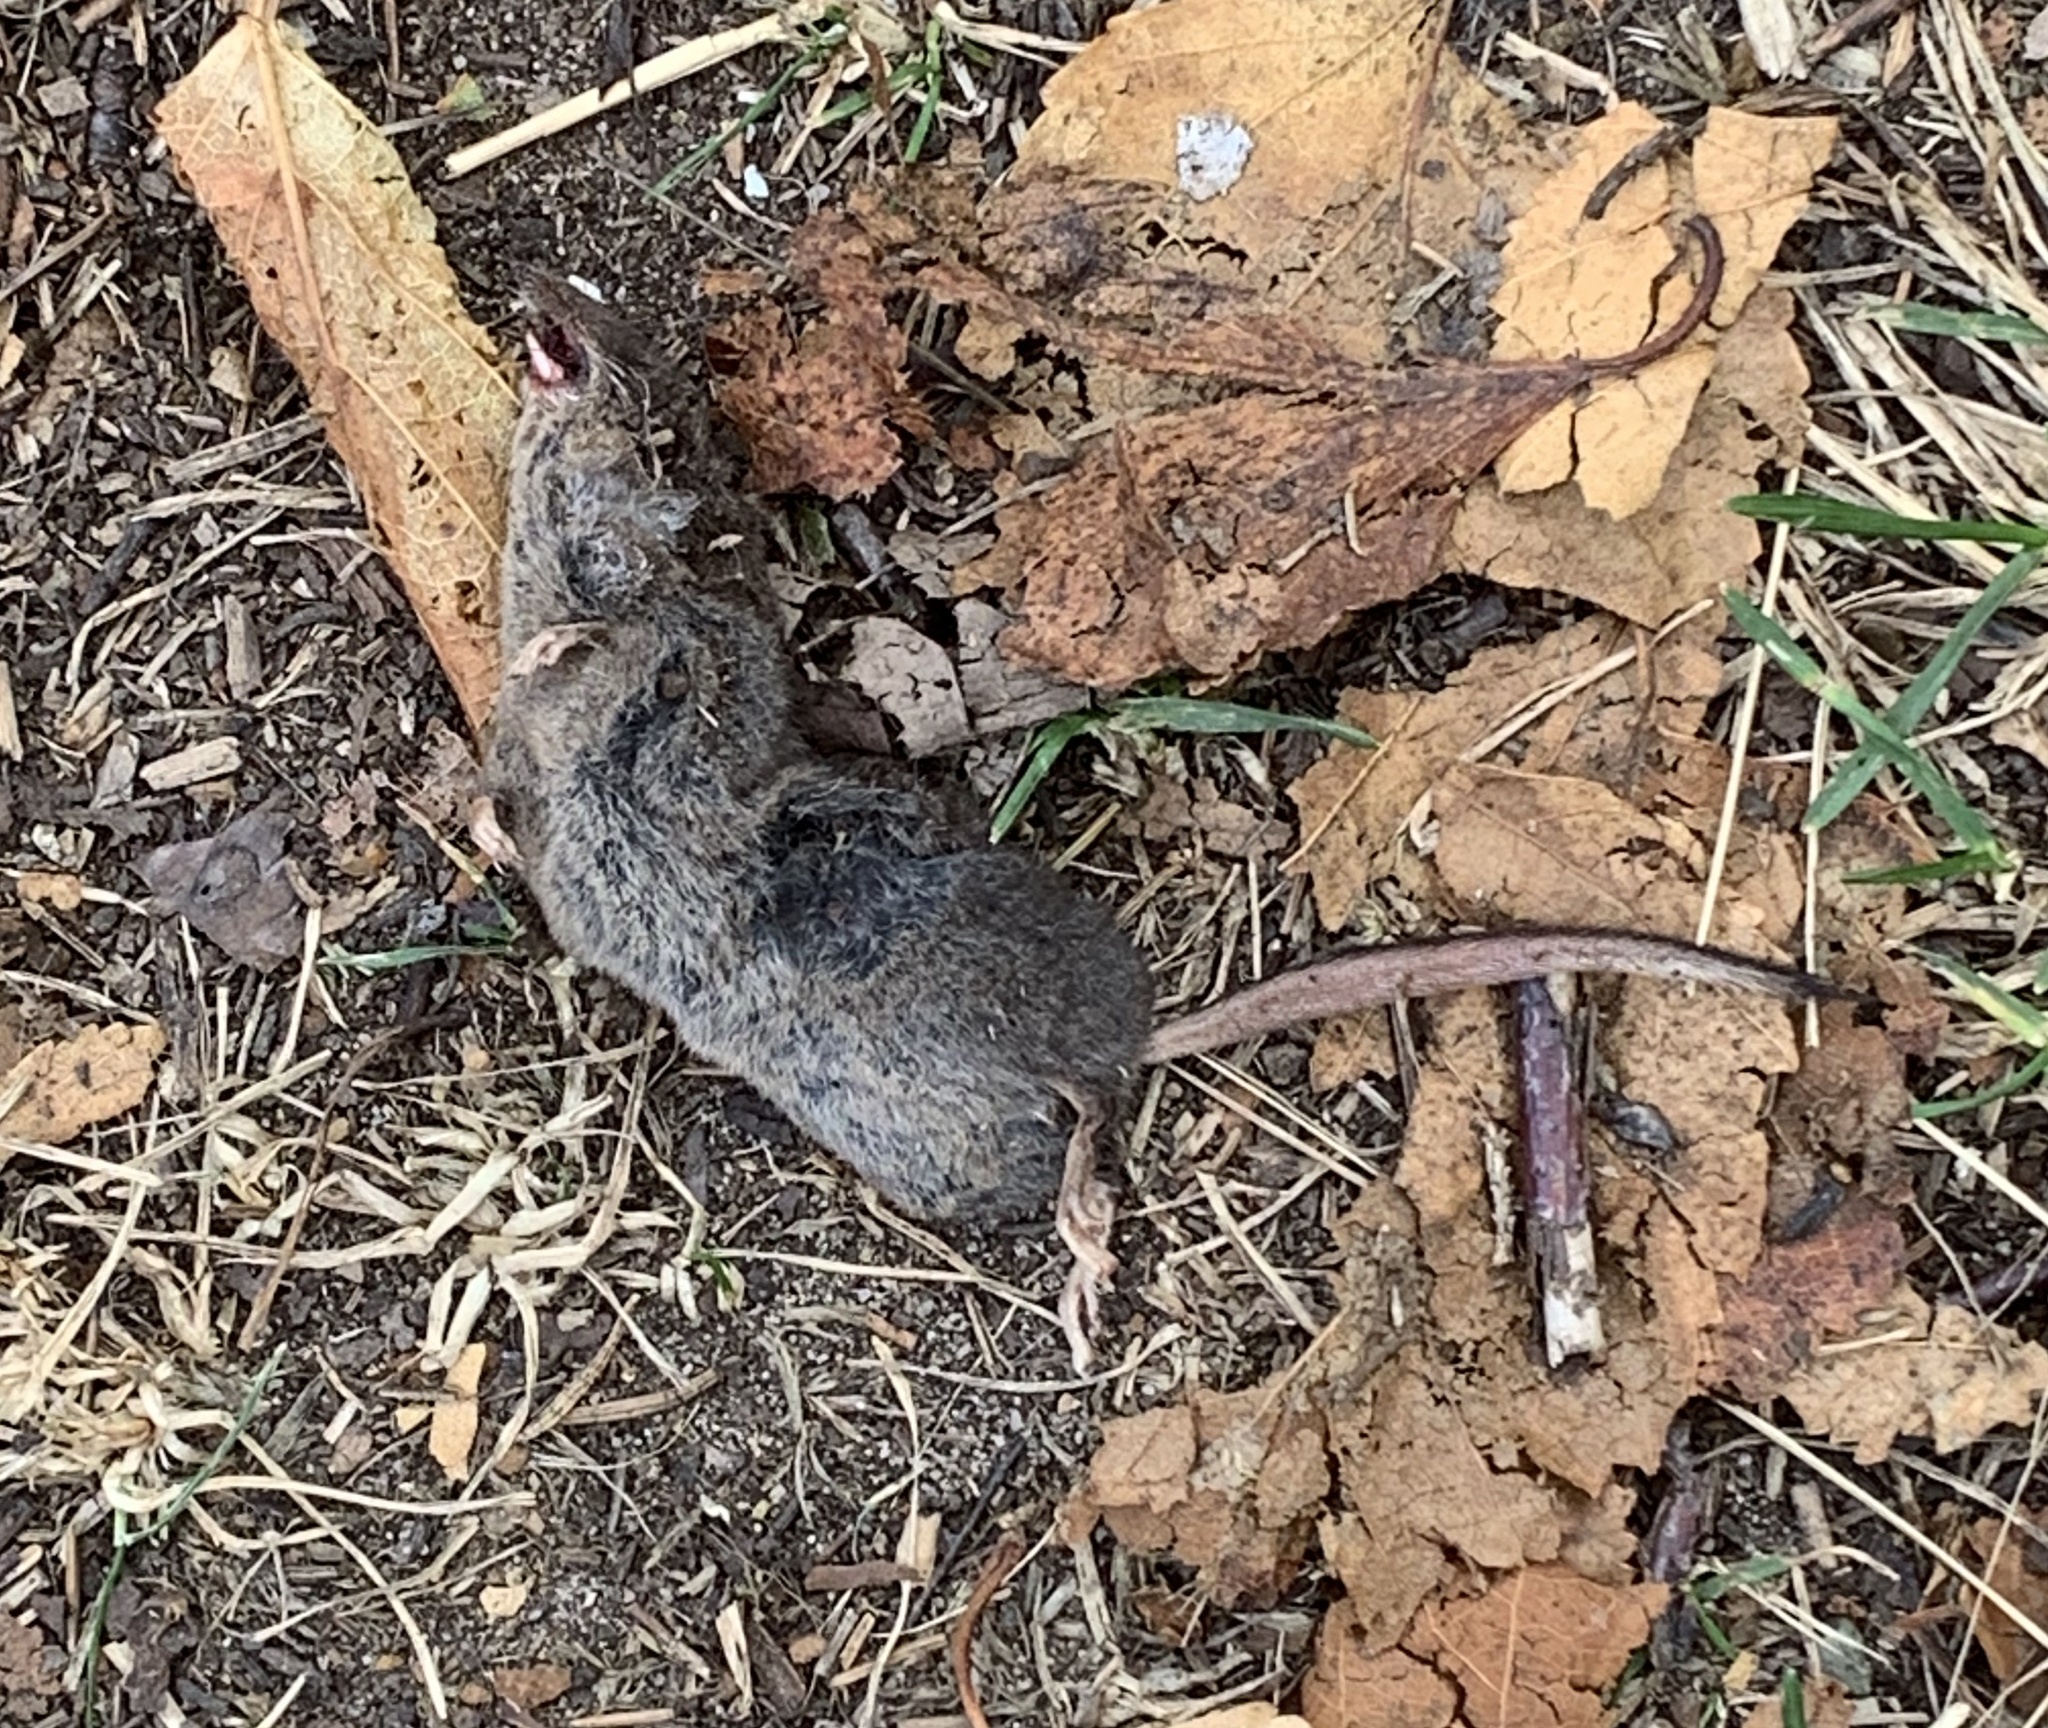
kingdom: Animalia
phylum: Chordata
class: Mammalia
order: Soricomorpha
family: Soricidae
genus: Sorex
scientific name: Sorex fumeus
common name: Smoky shrew
